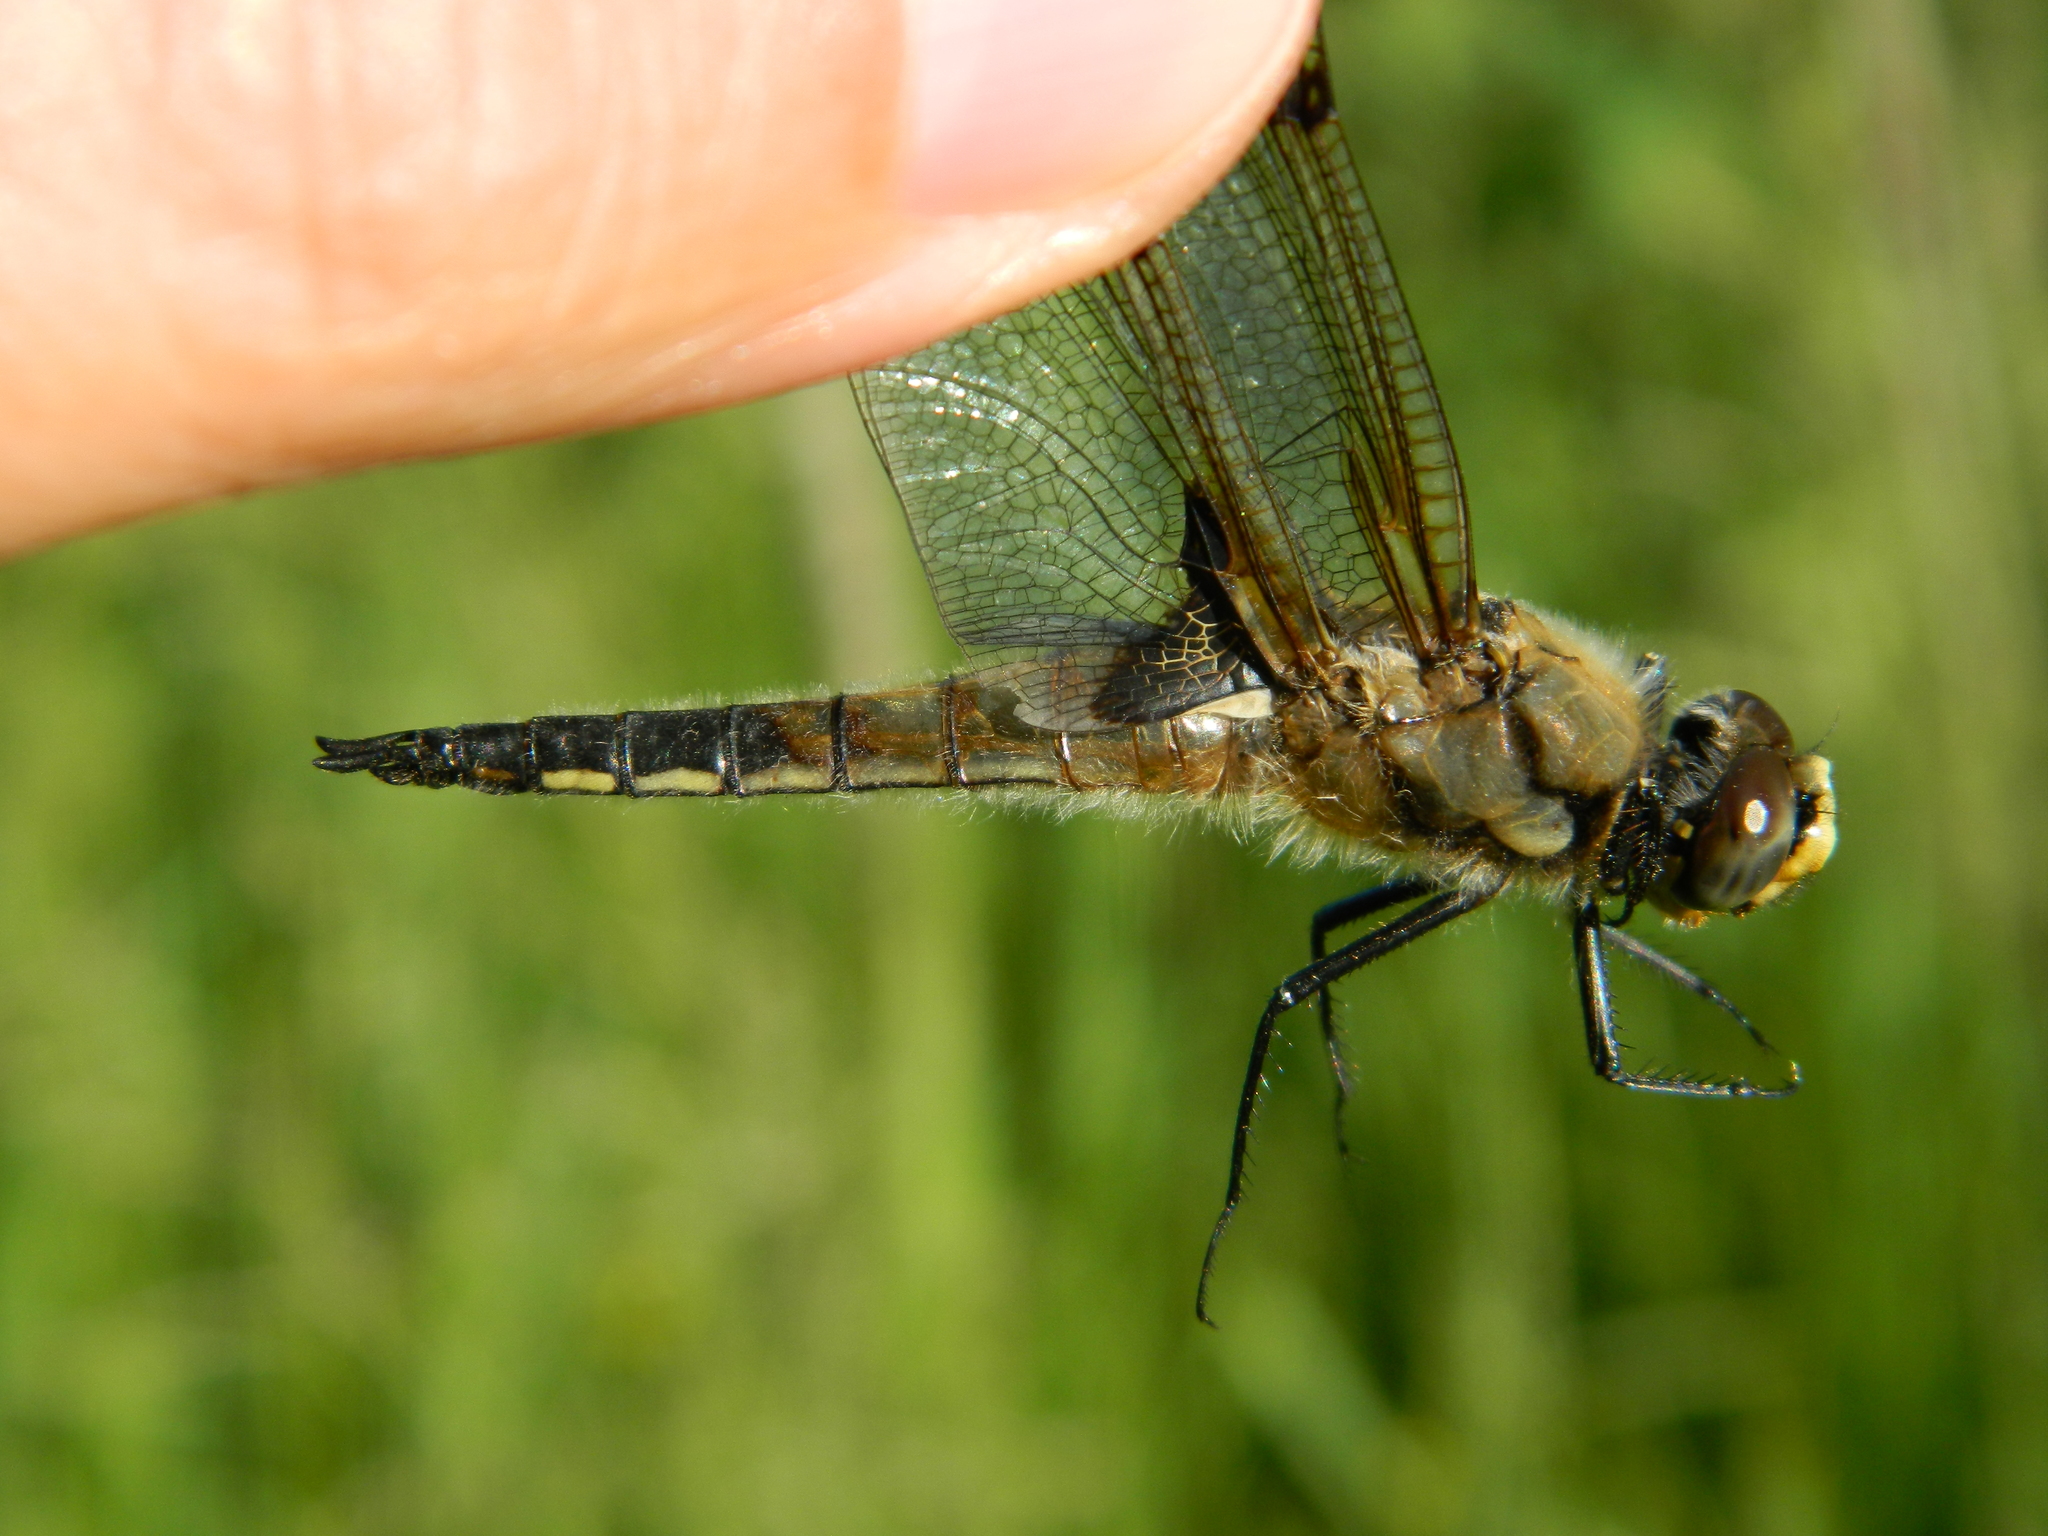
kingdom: Animalia
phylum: Arthropoda
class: Insecta
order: Odonata
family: Libellulidae
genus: Libellula
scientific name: Libellula quadrimaculata
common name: Four-spotted chaser
